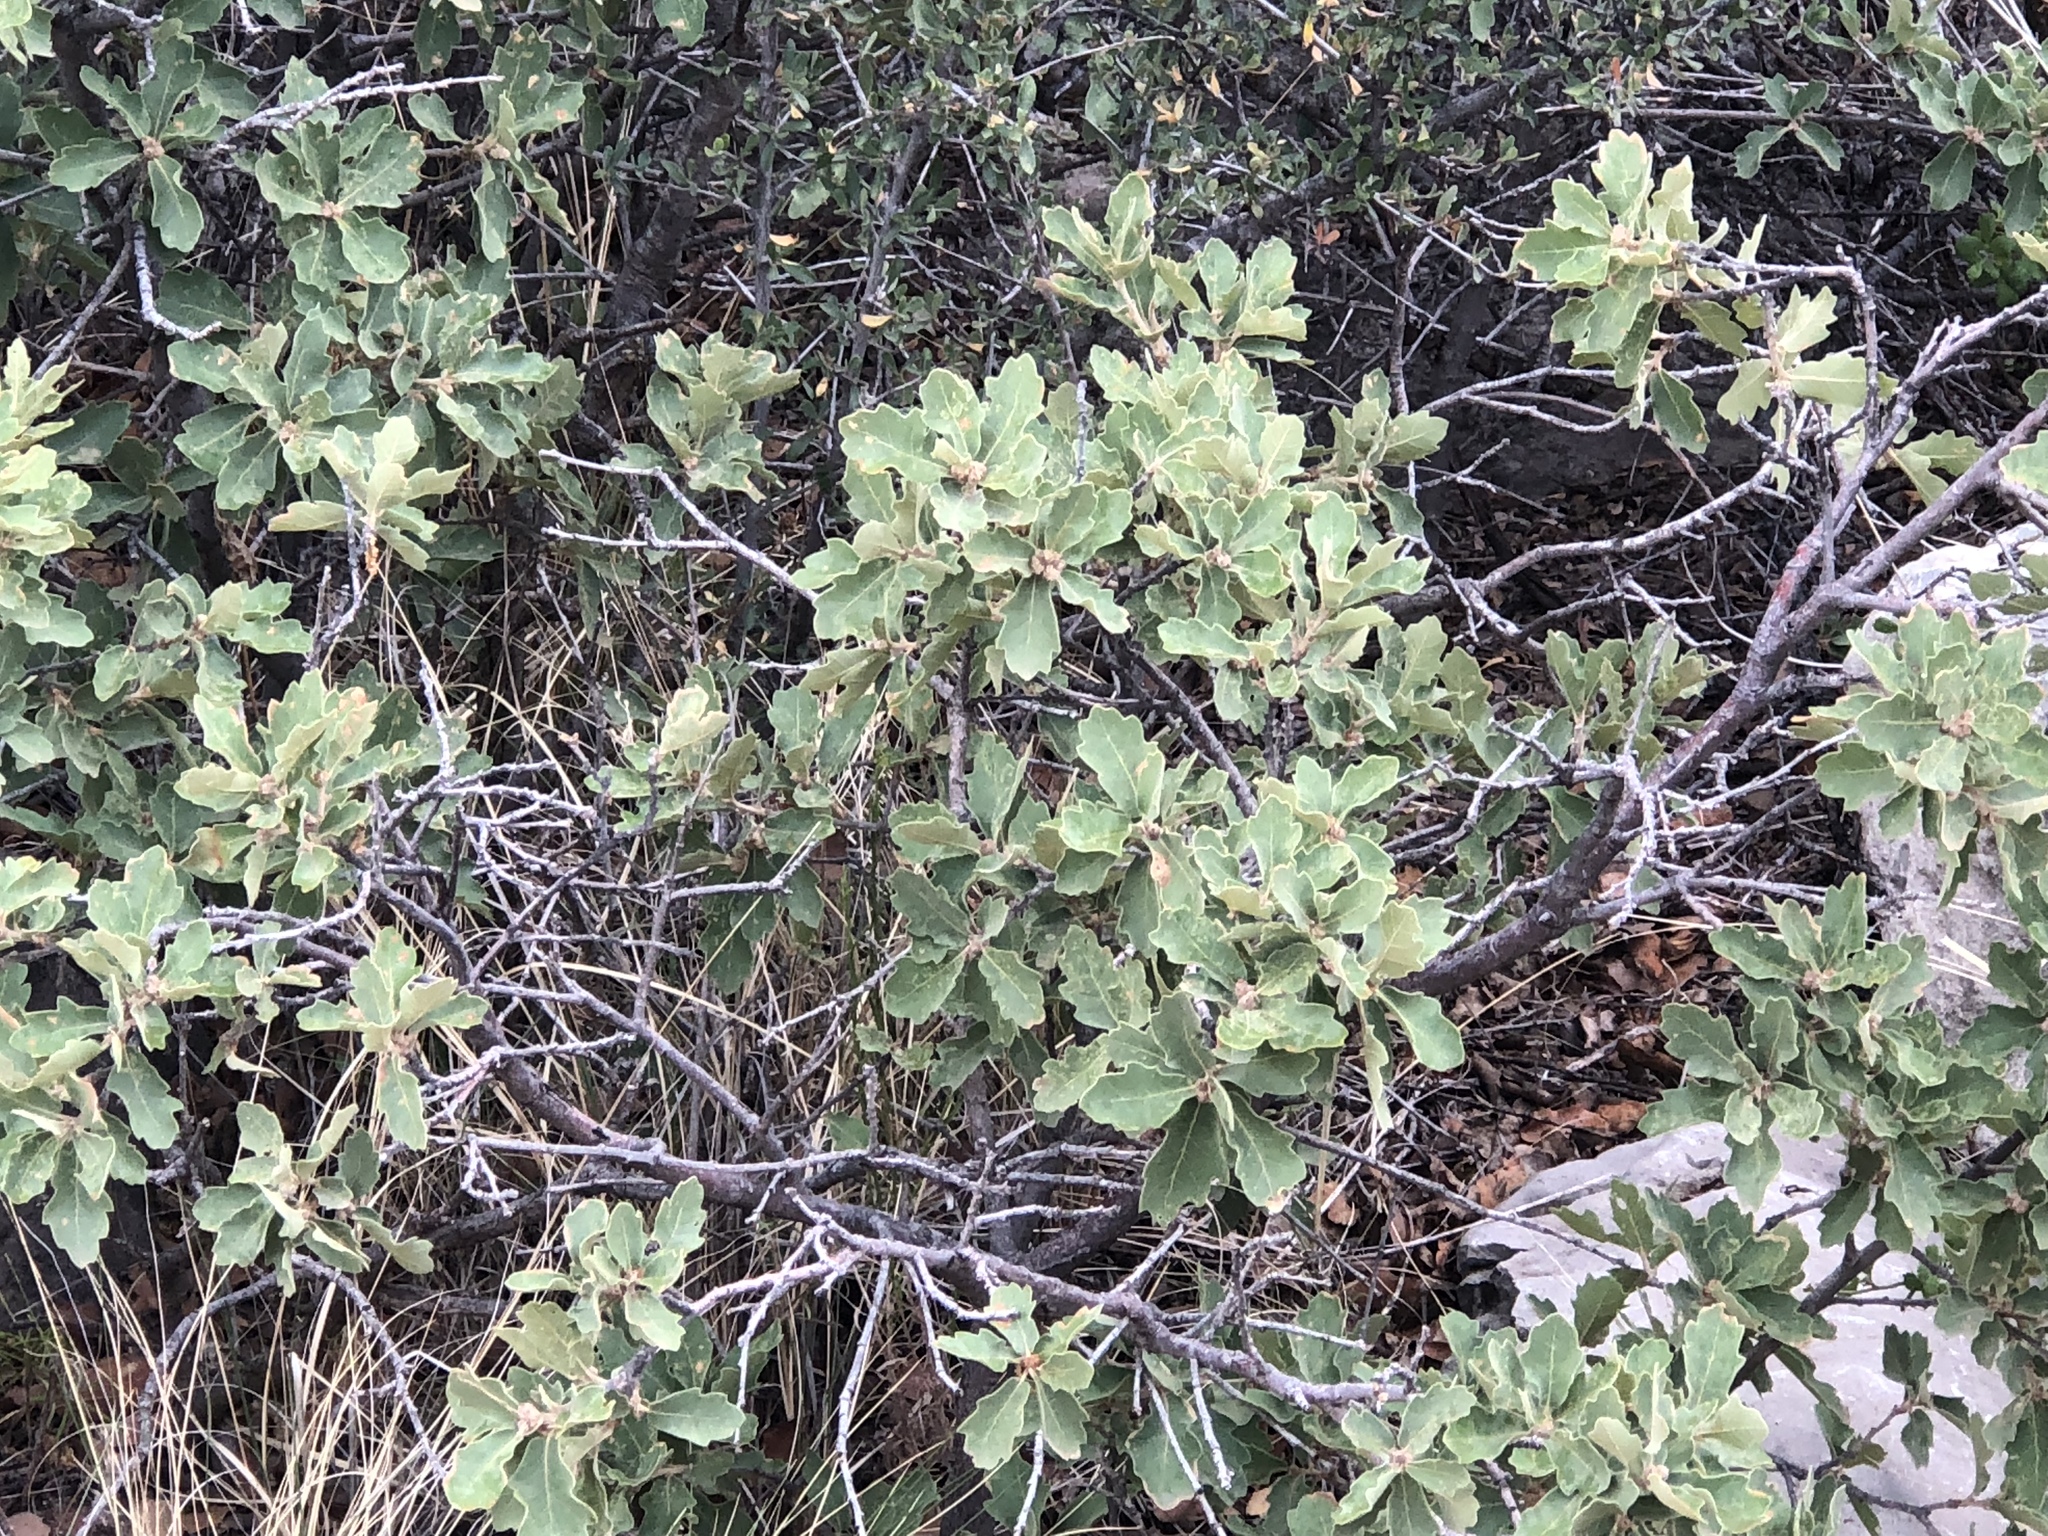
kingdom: Plantae
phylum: Tracheophyta
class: Magnoliopsida
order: Fagales
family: Fagaceae
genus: Quercus
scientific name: Quercus undulata
